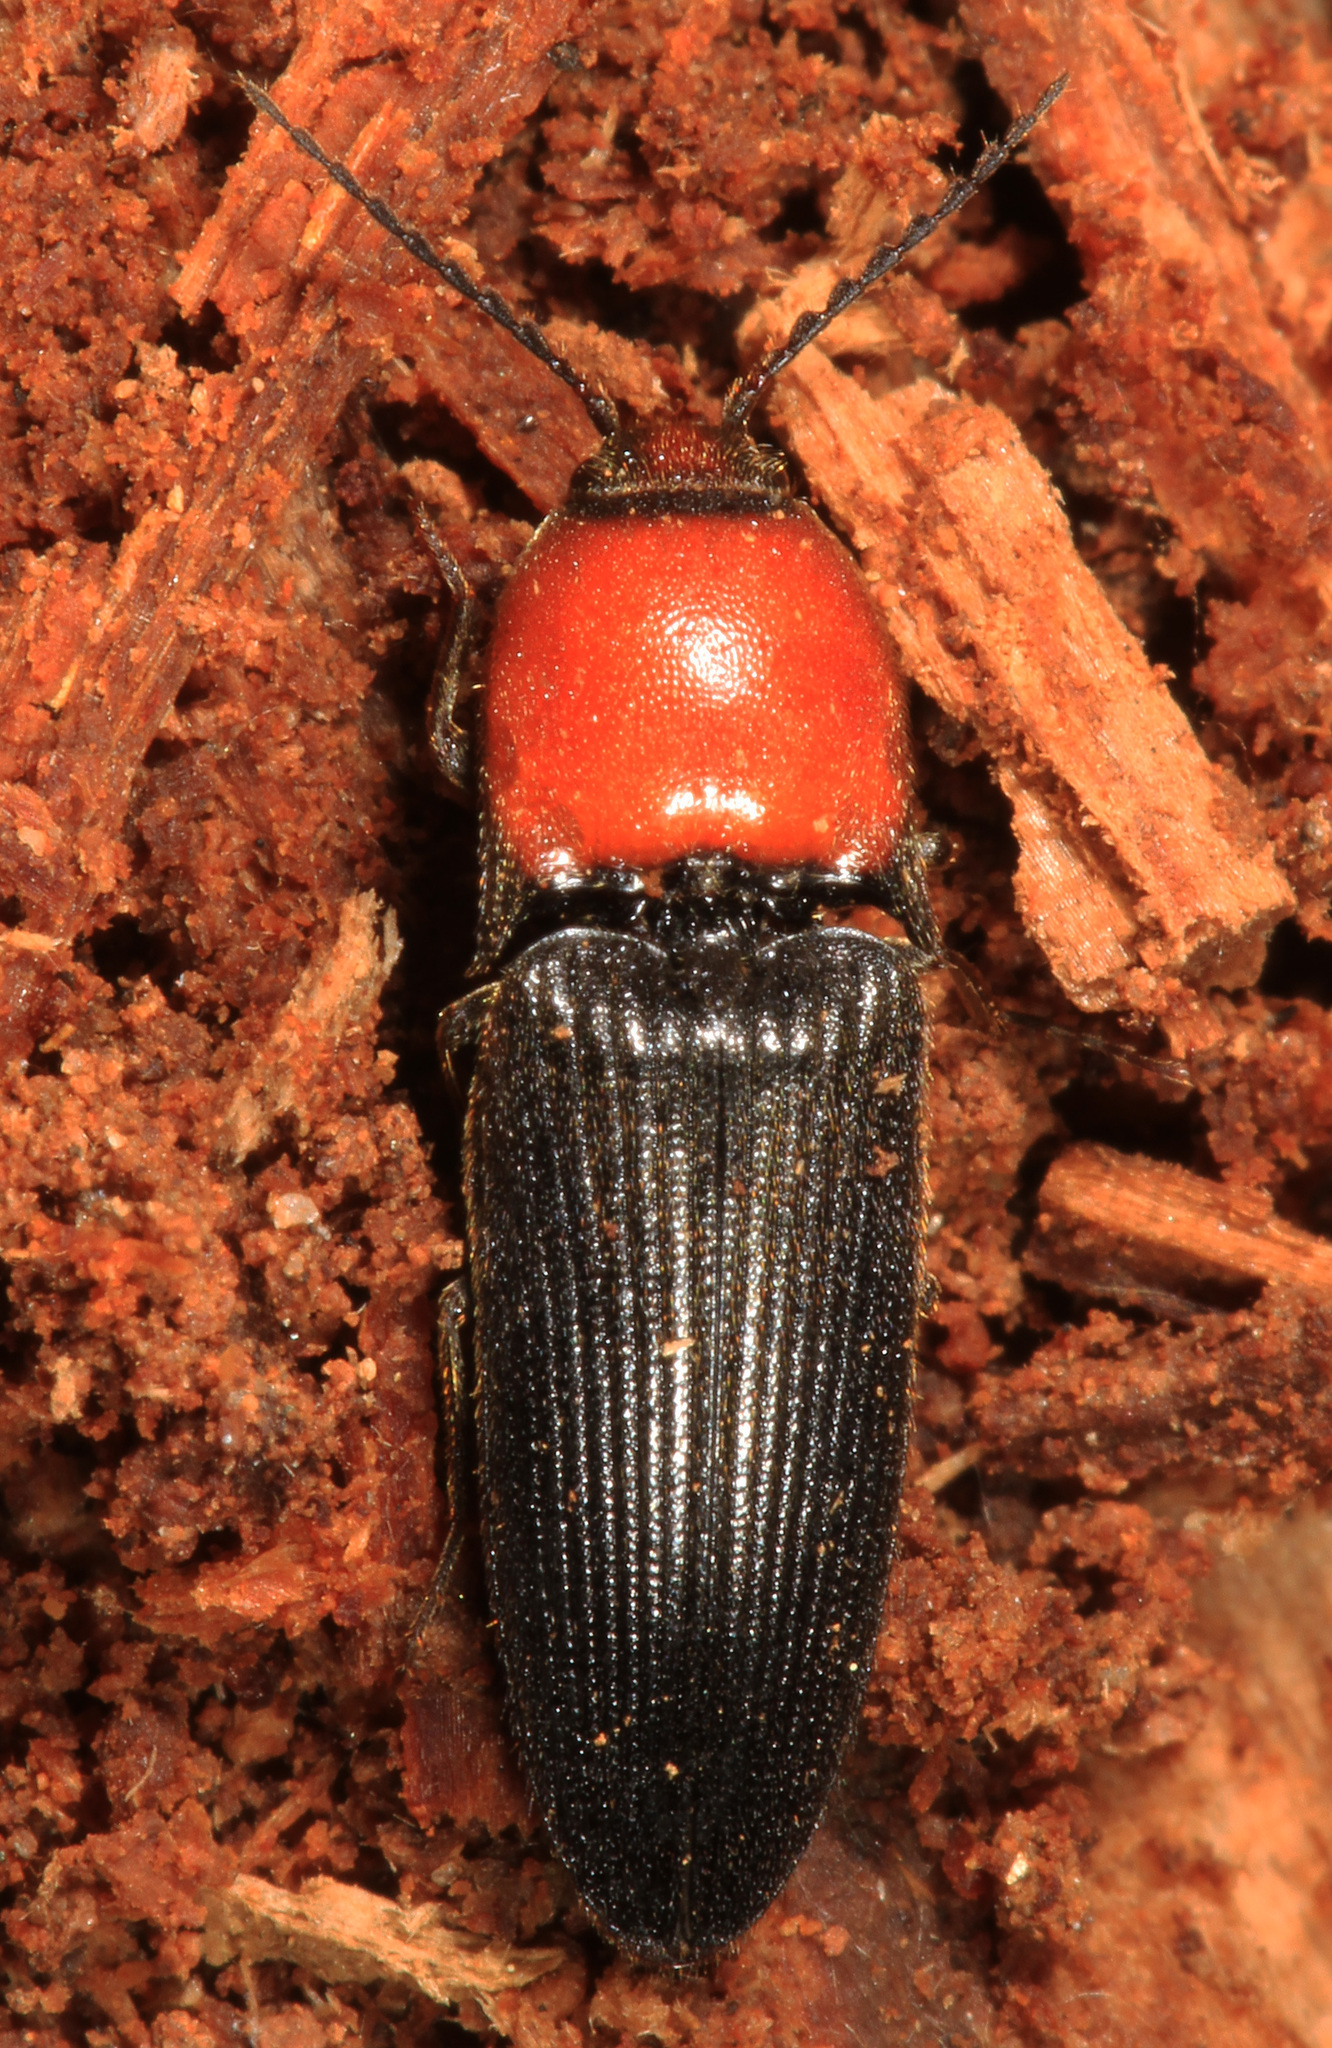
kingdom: Animalia
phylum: Arthropoda
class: Insecta
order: Coleoptera
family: Elateridae
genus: Ampedus
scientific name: Ampedus rubricollis
